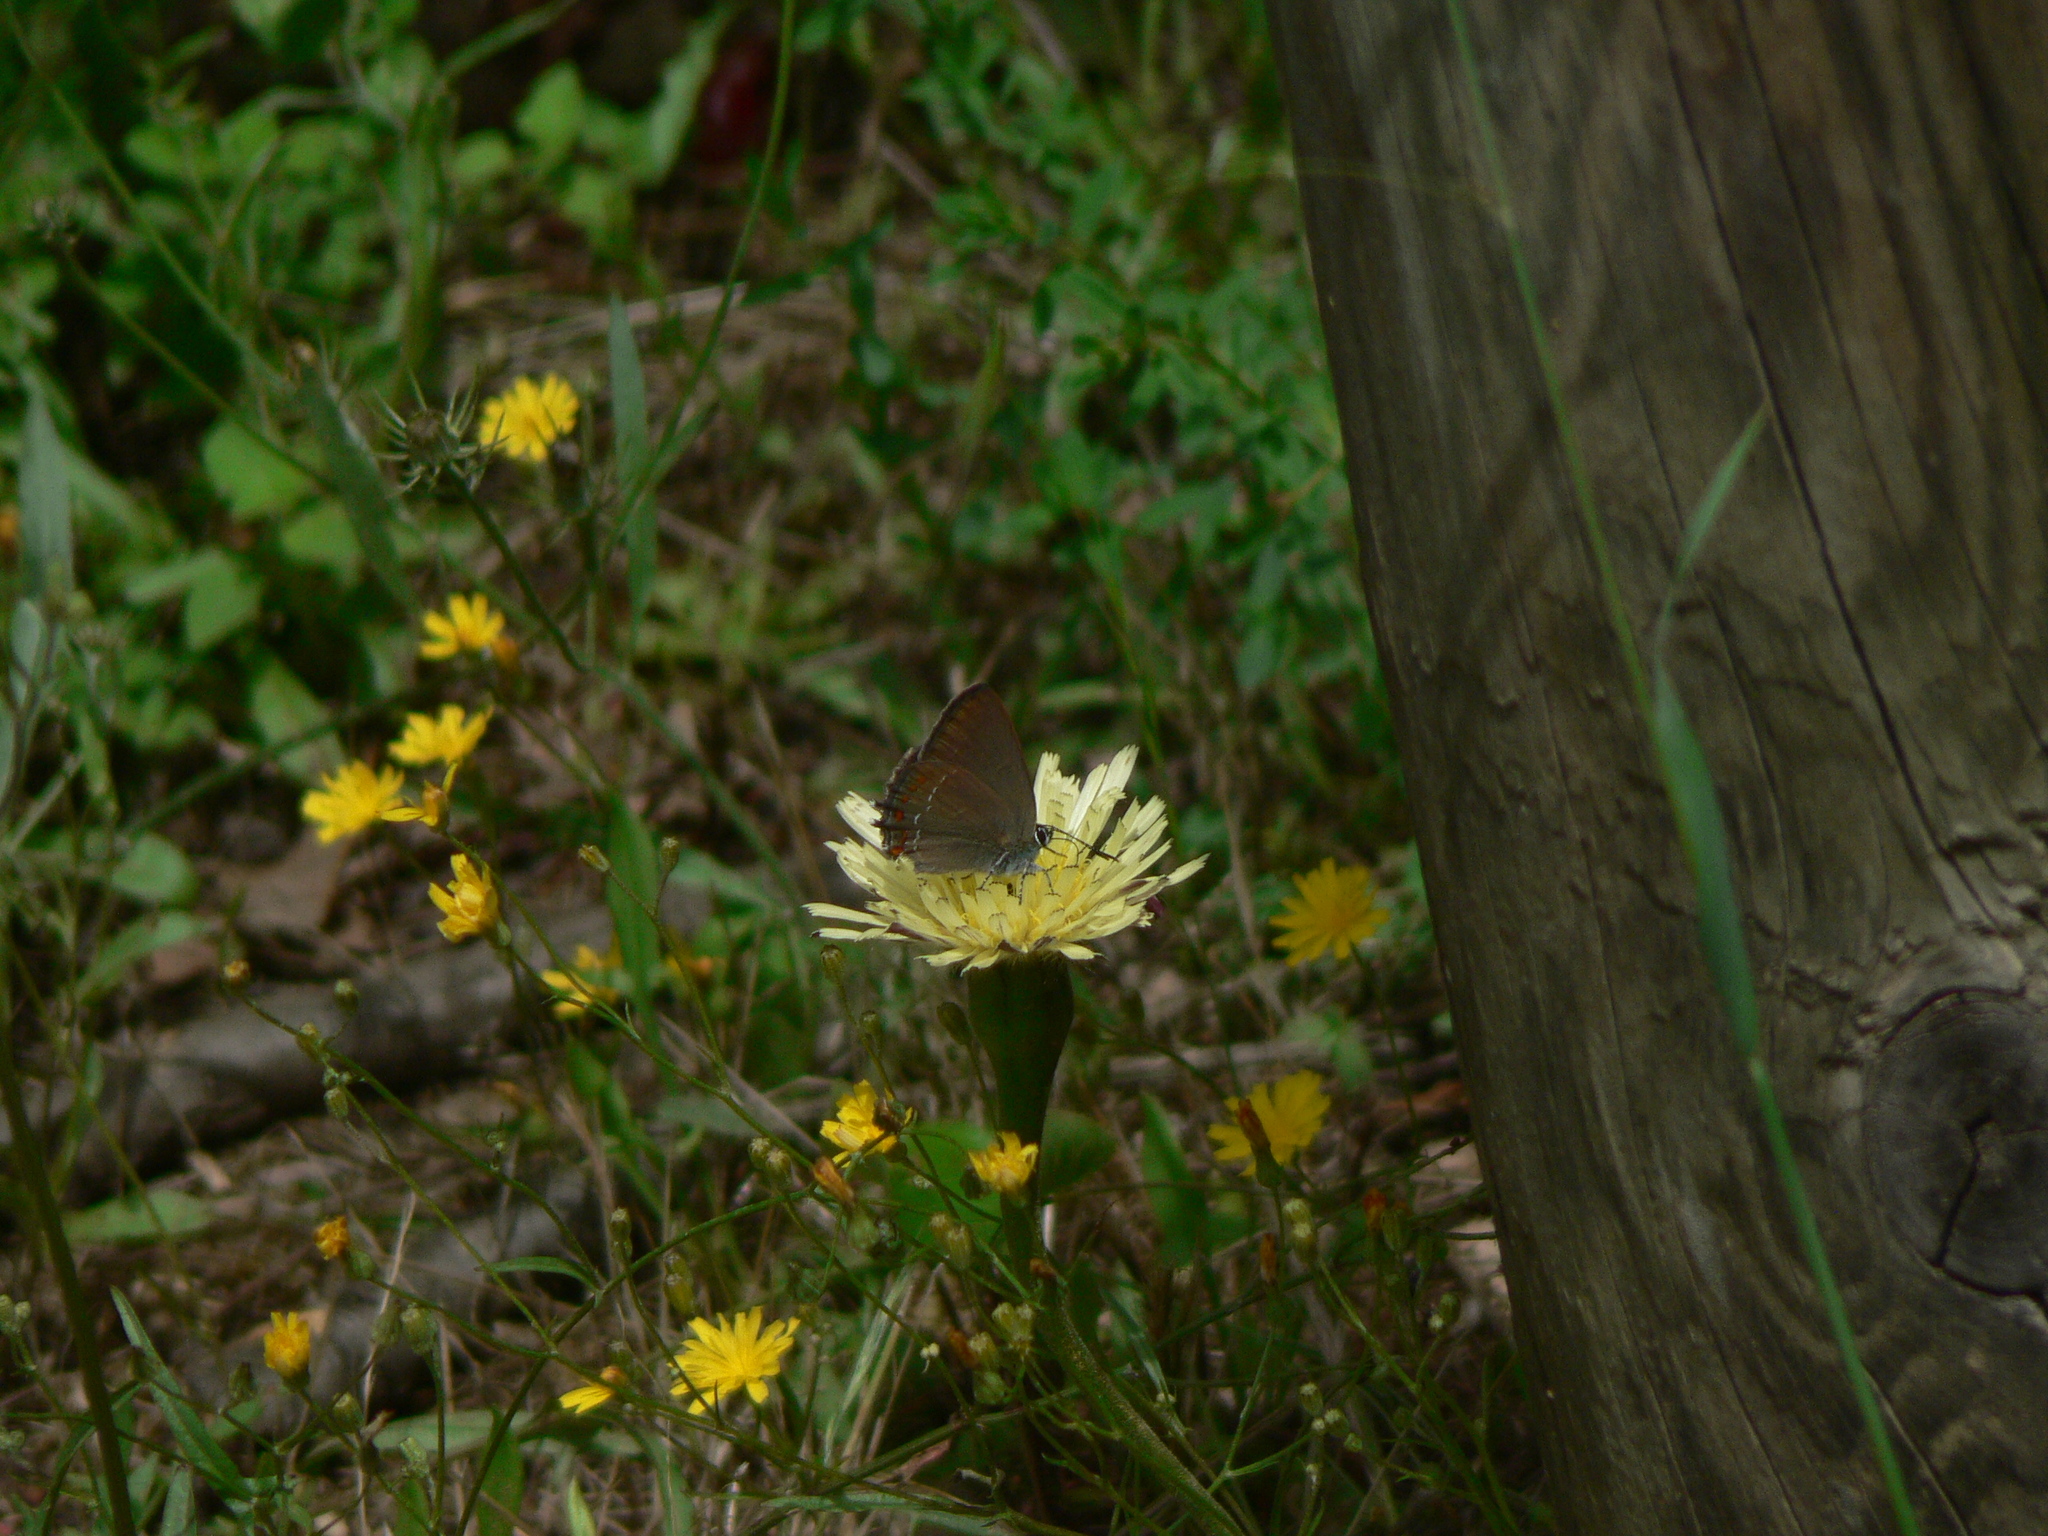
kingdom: Animalia
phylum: Arthropoda
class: Insecta
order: Lepidoptera
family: Lycaenidae
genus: Fixsenia
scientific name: Fixsenia esculi
